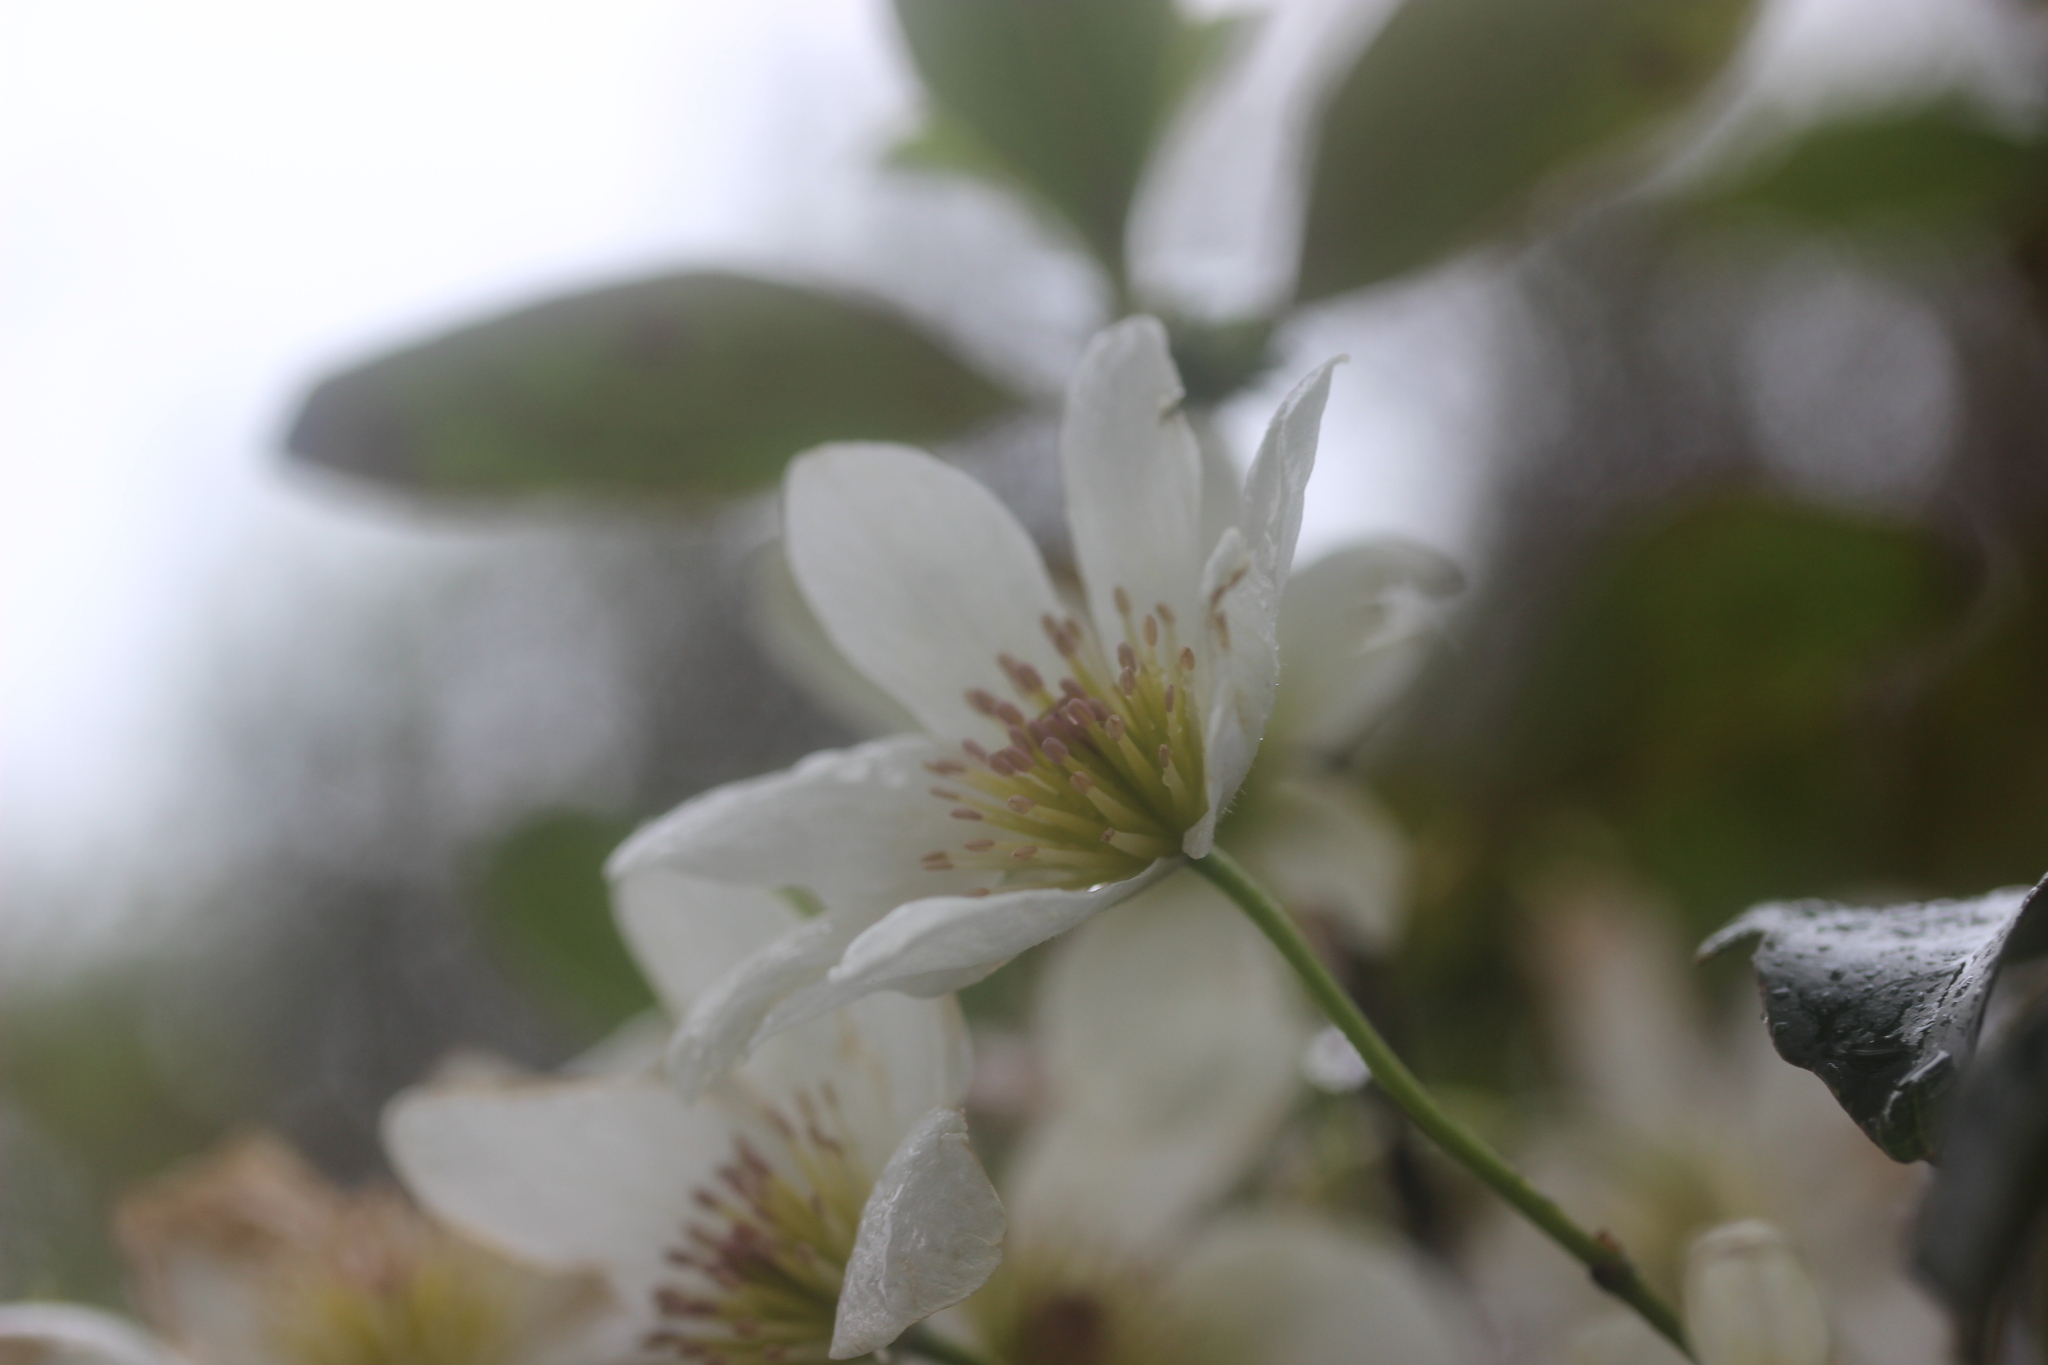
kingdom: Plantae
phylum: Tracheophyta
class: Magnoliopsida
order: Ranunculales
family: Ranunculaceae
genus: Clematis
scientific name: Clematis paniculata
